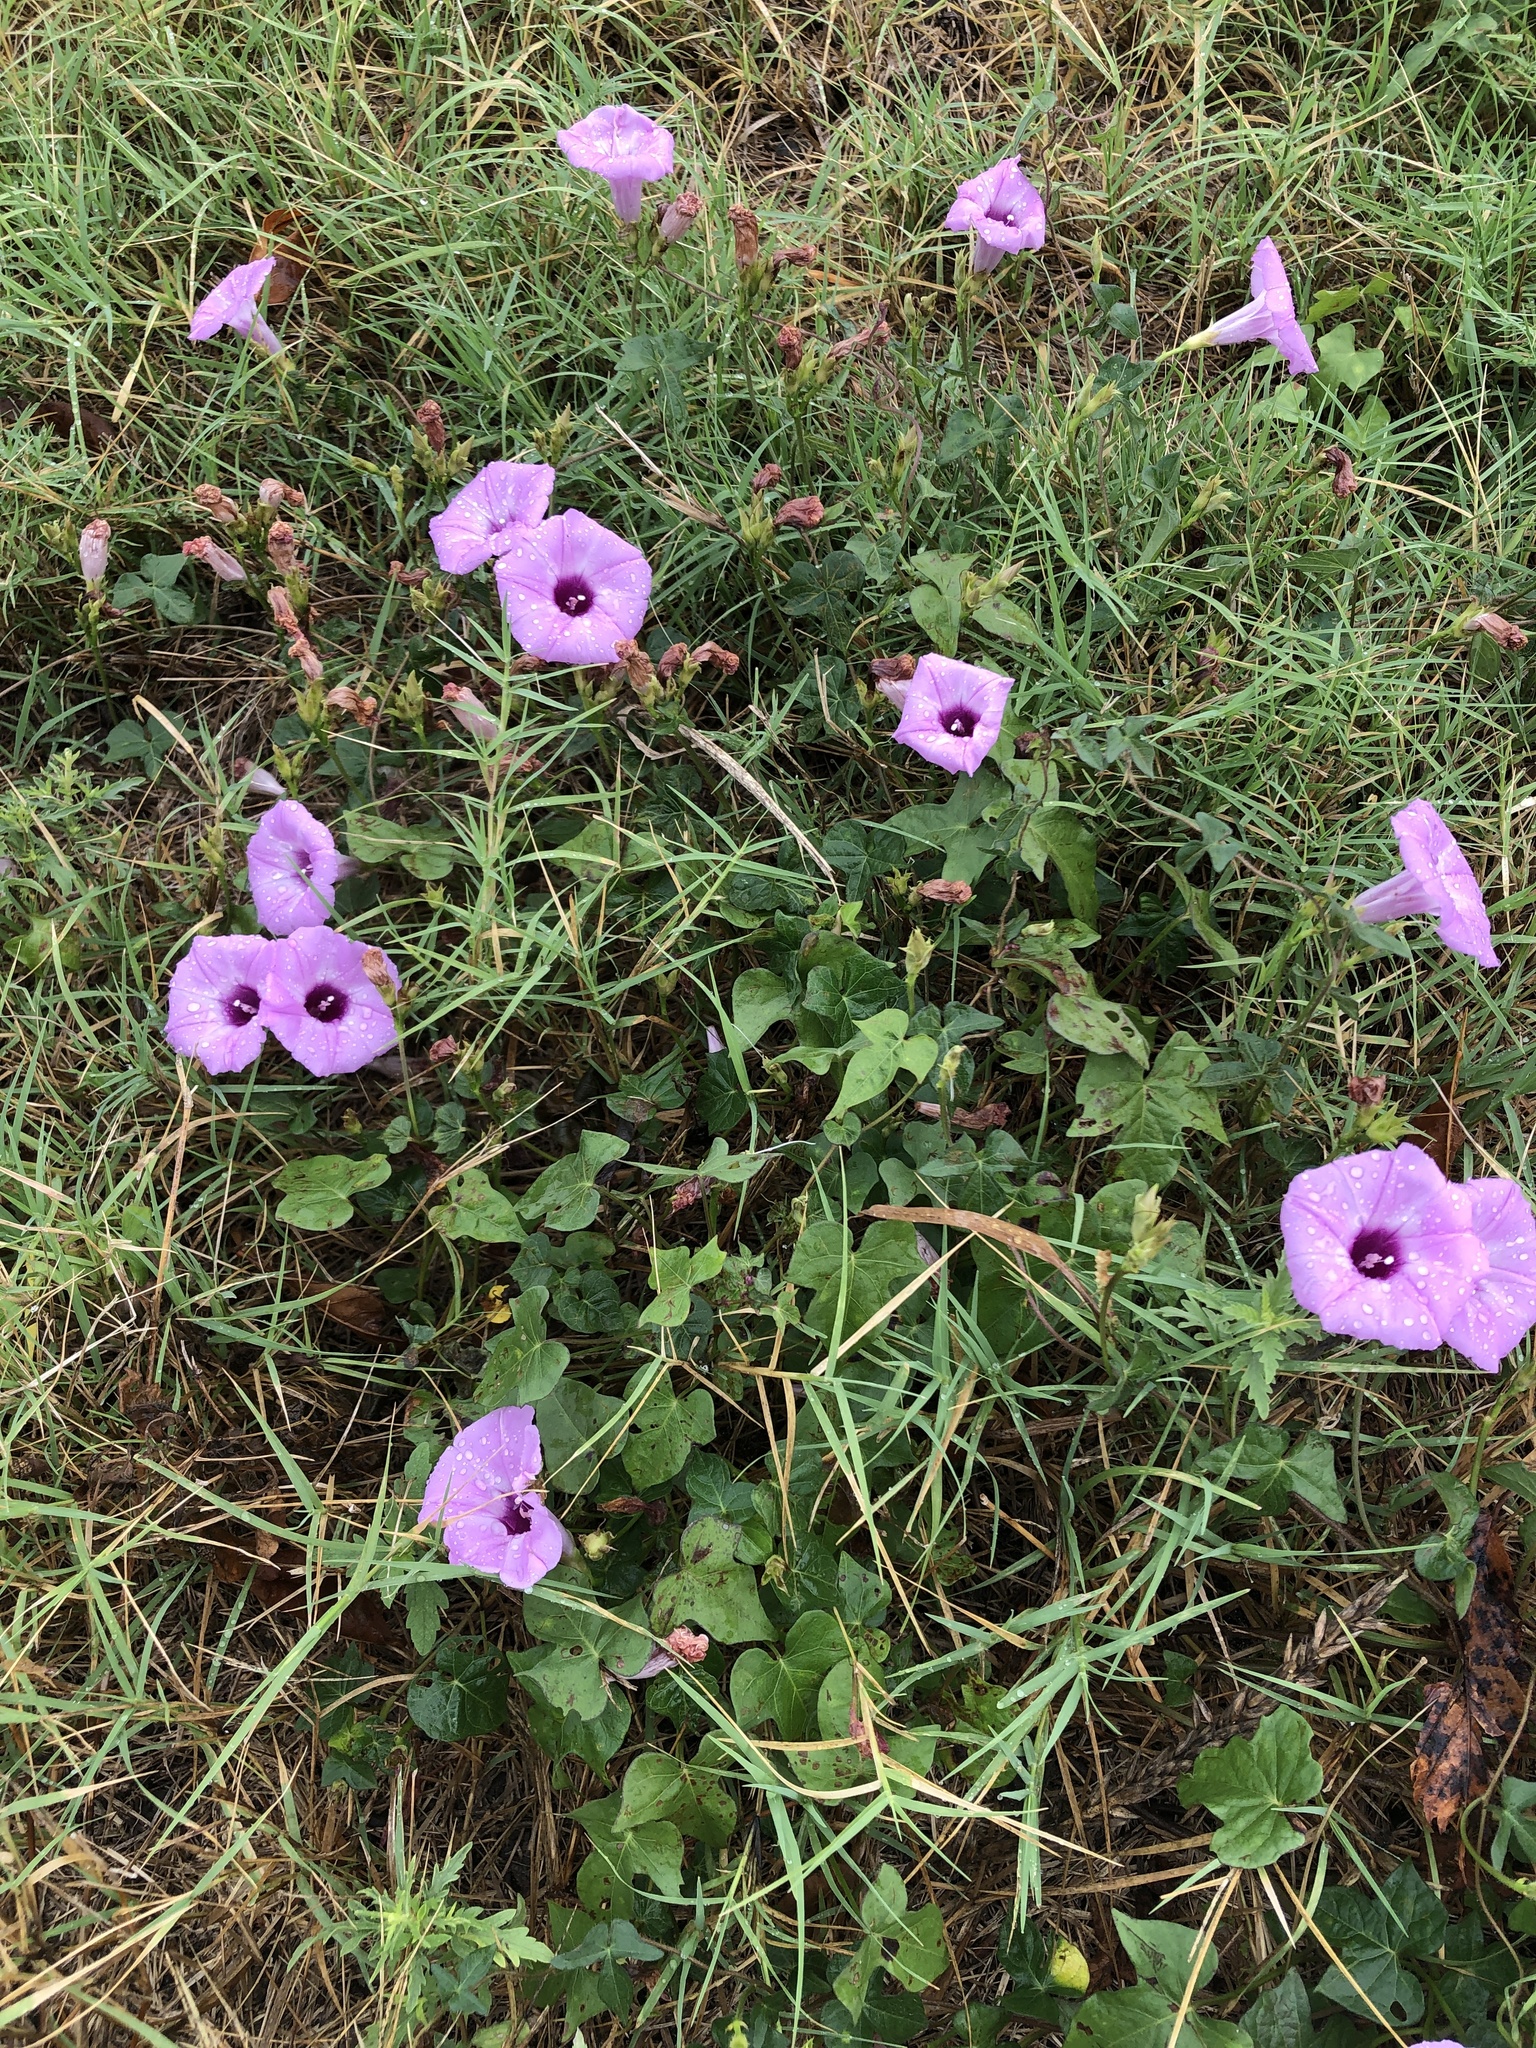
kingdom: Plantae
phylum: Tracheophyta
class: Magnoliopsida
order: Solanales
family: Convolvulaceae
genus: Ipomoea
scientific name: Ipomoea cordatotriloba
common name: Cotton morning glory
